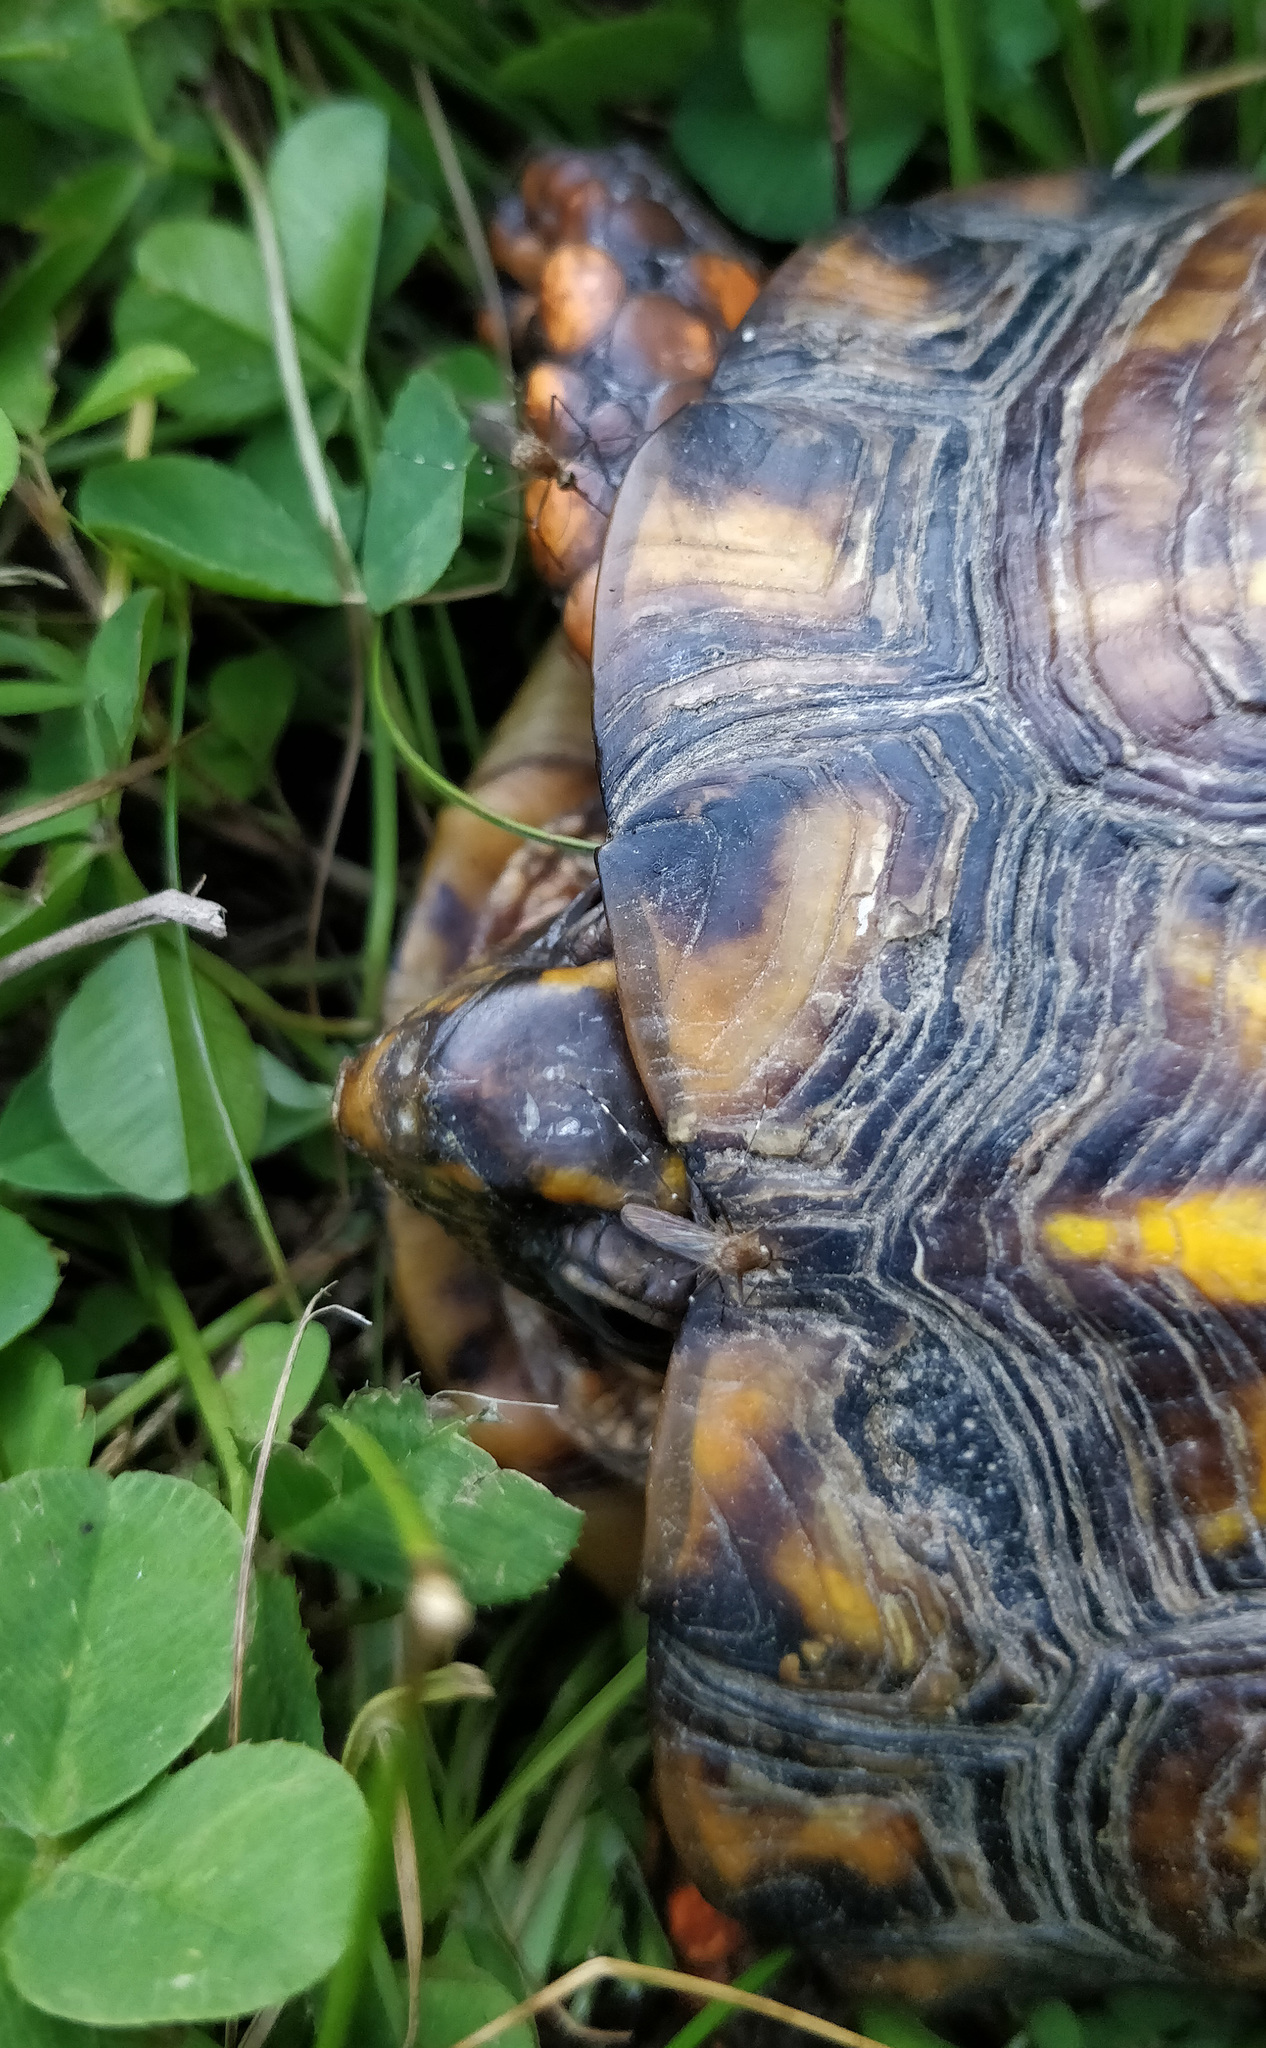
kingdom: Animalia
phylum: Chordata
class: Testudines
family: Emydidae
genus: Terrapene
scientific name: Terrapene carolina
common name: Common box turtle
